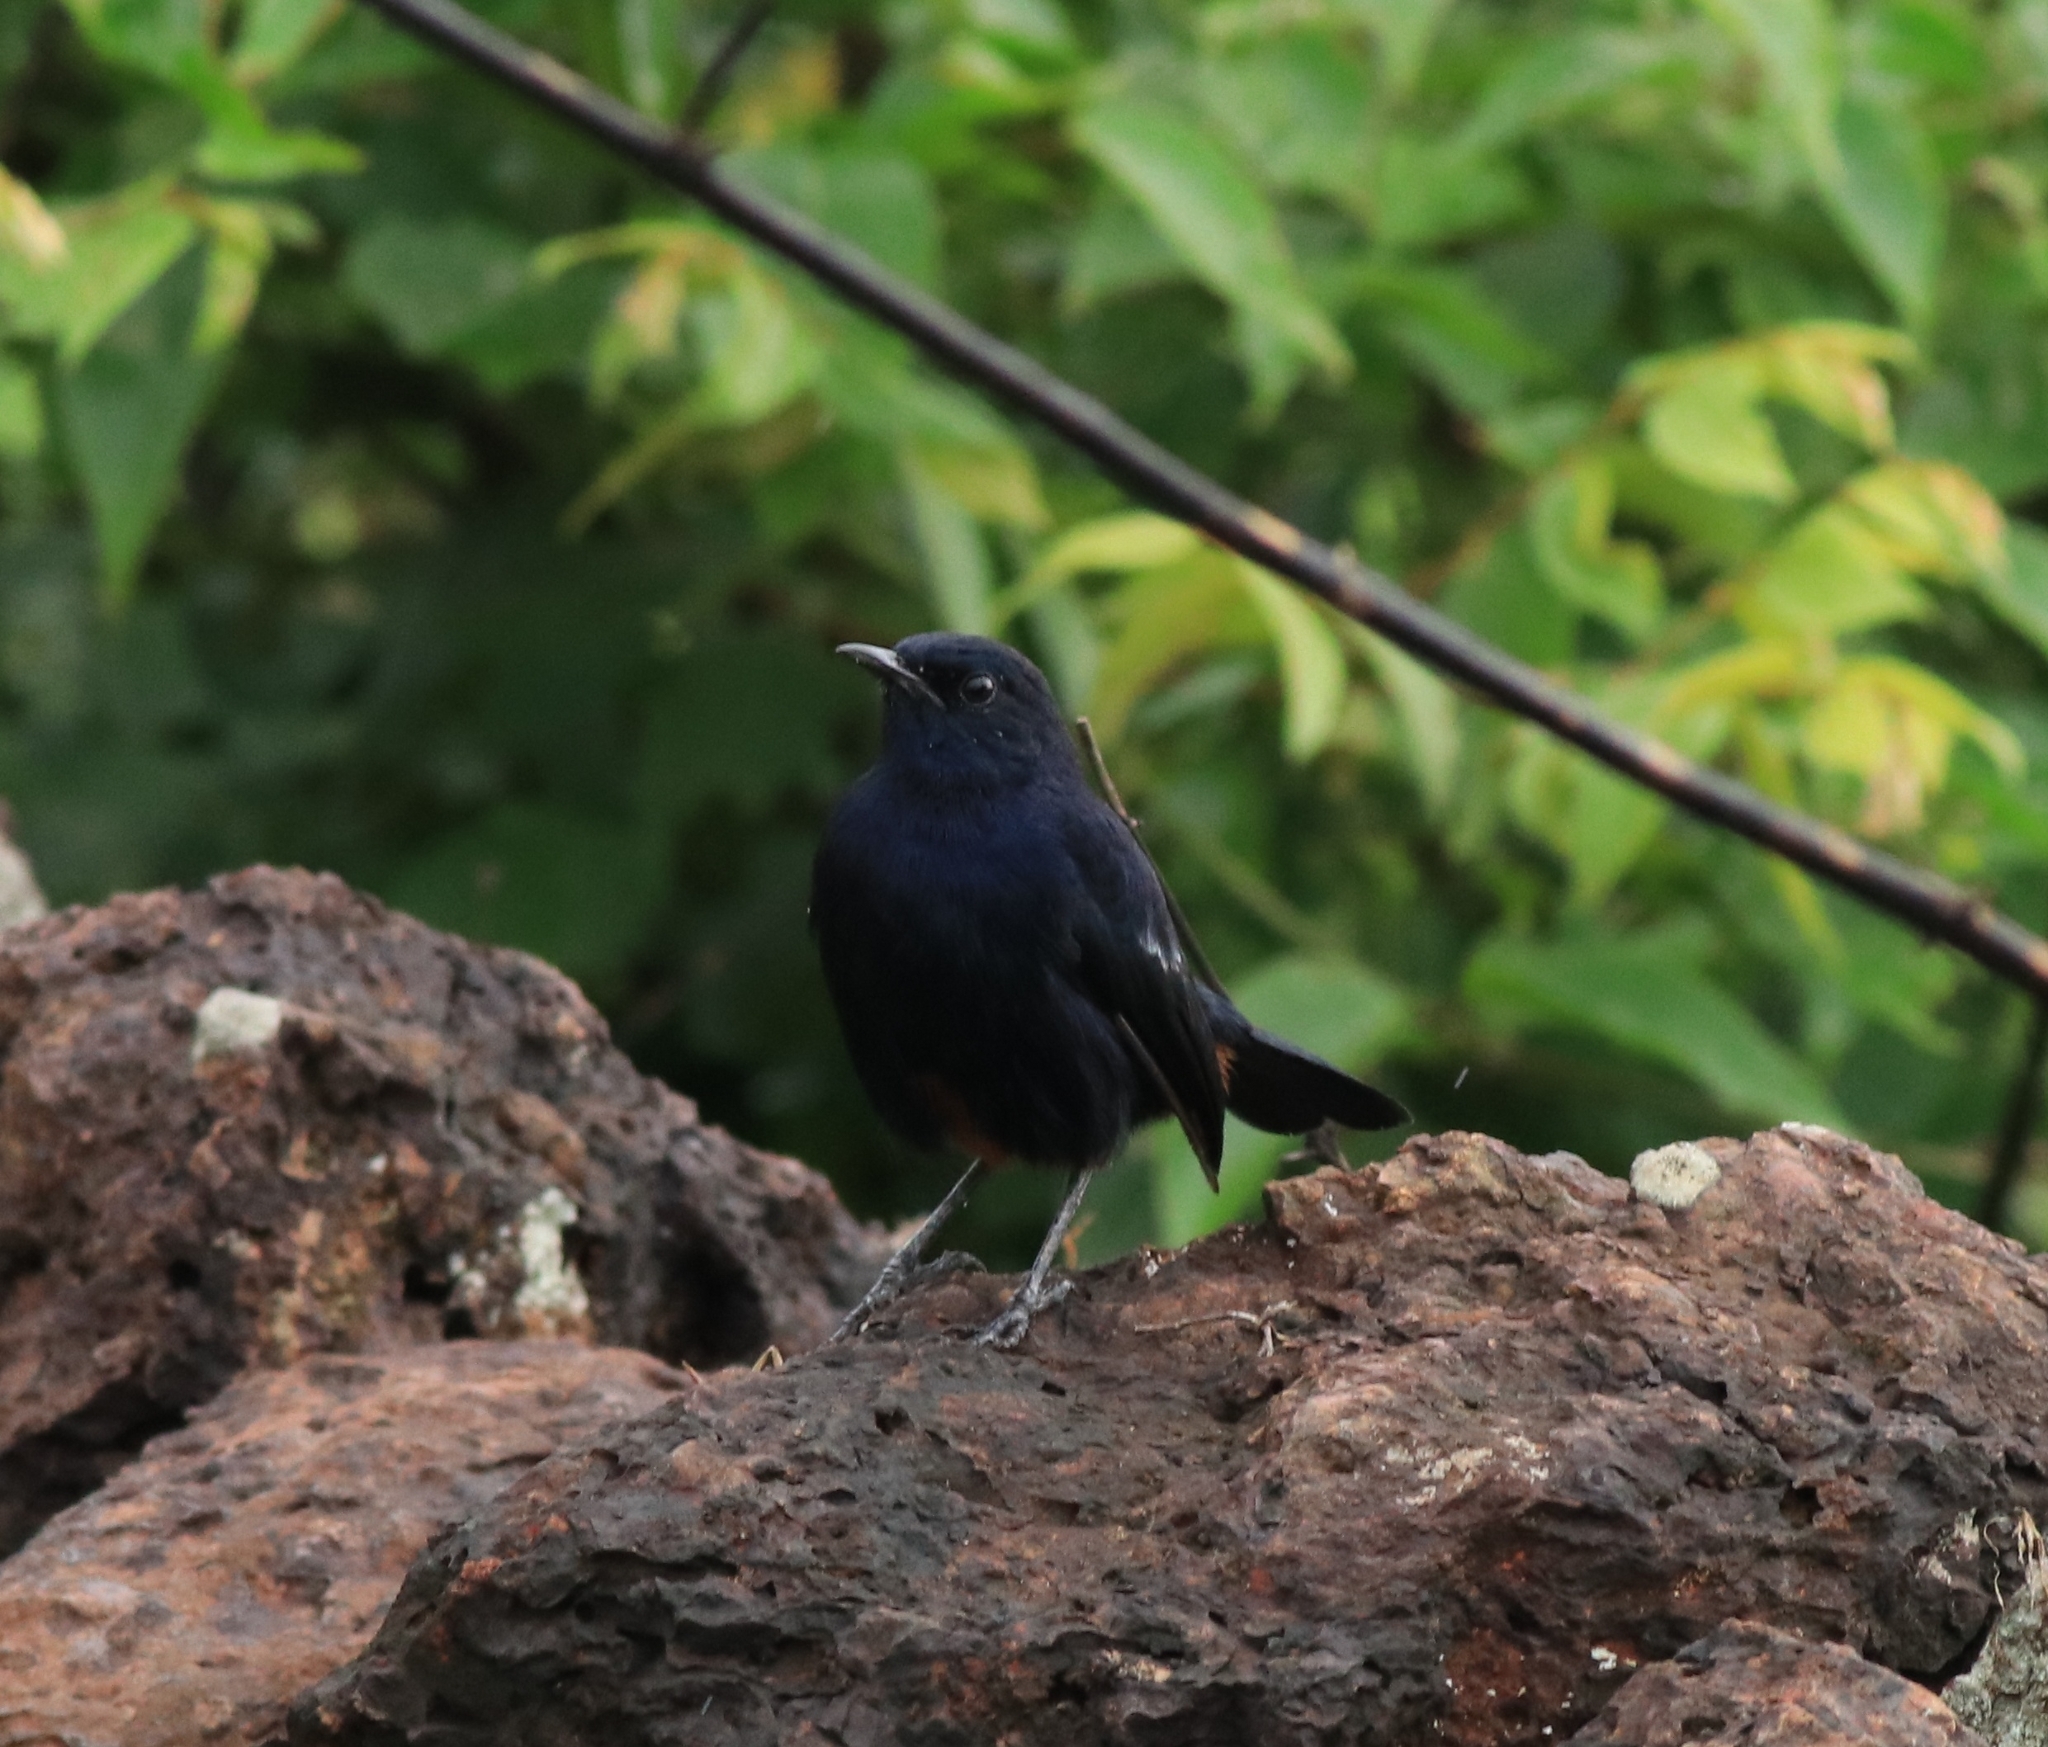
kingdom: Animalia
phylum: Chordata
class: Aves
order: Passeriformes
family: Muscicapidae
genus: Saxicoloides
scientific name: Saxicoloides fulicatus
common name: Indian robin
